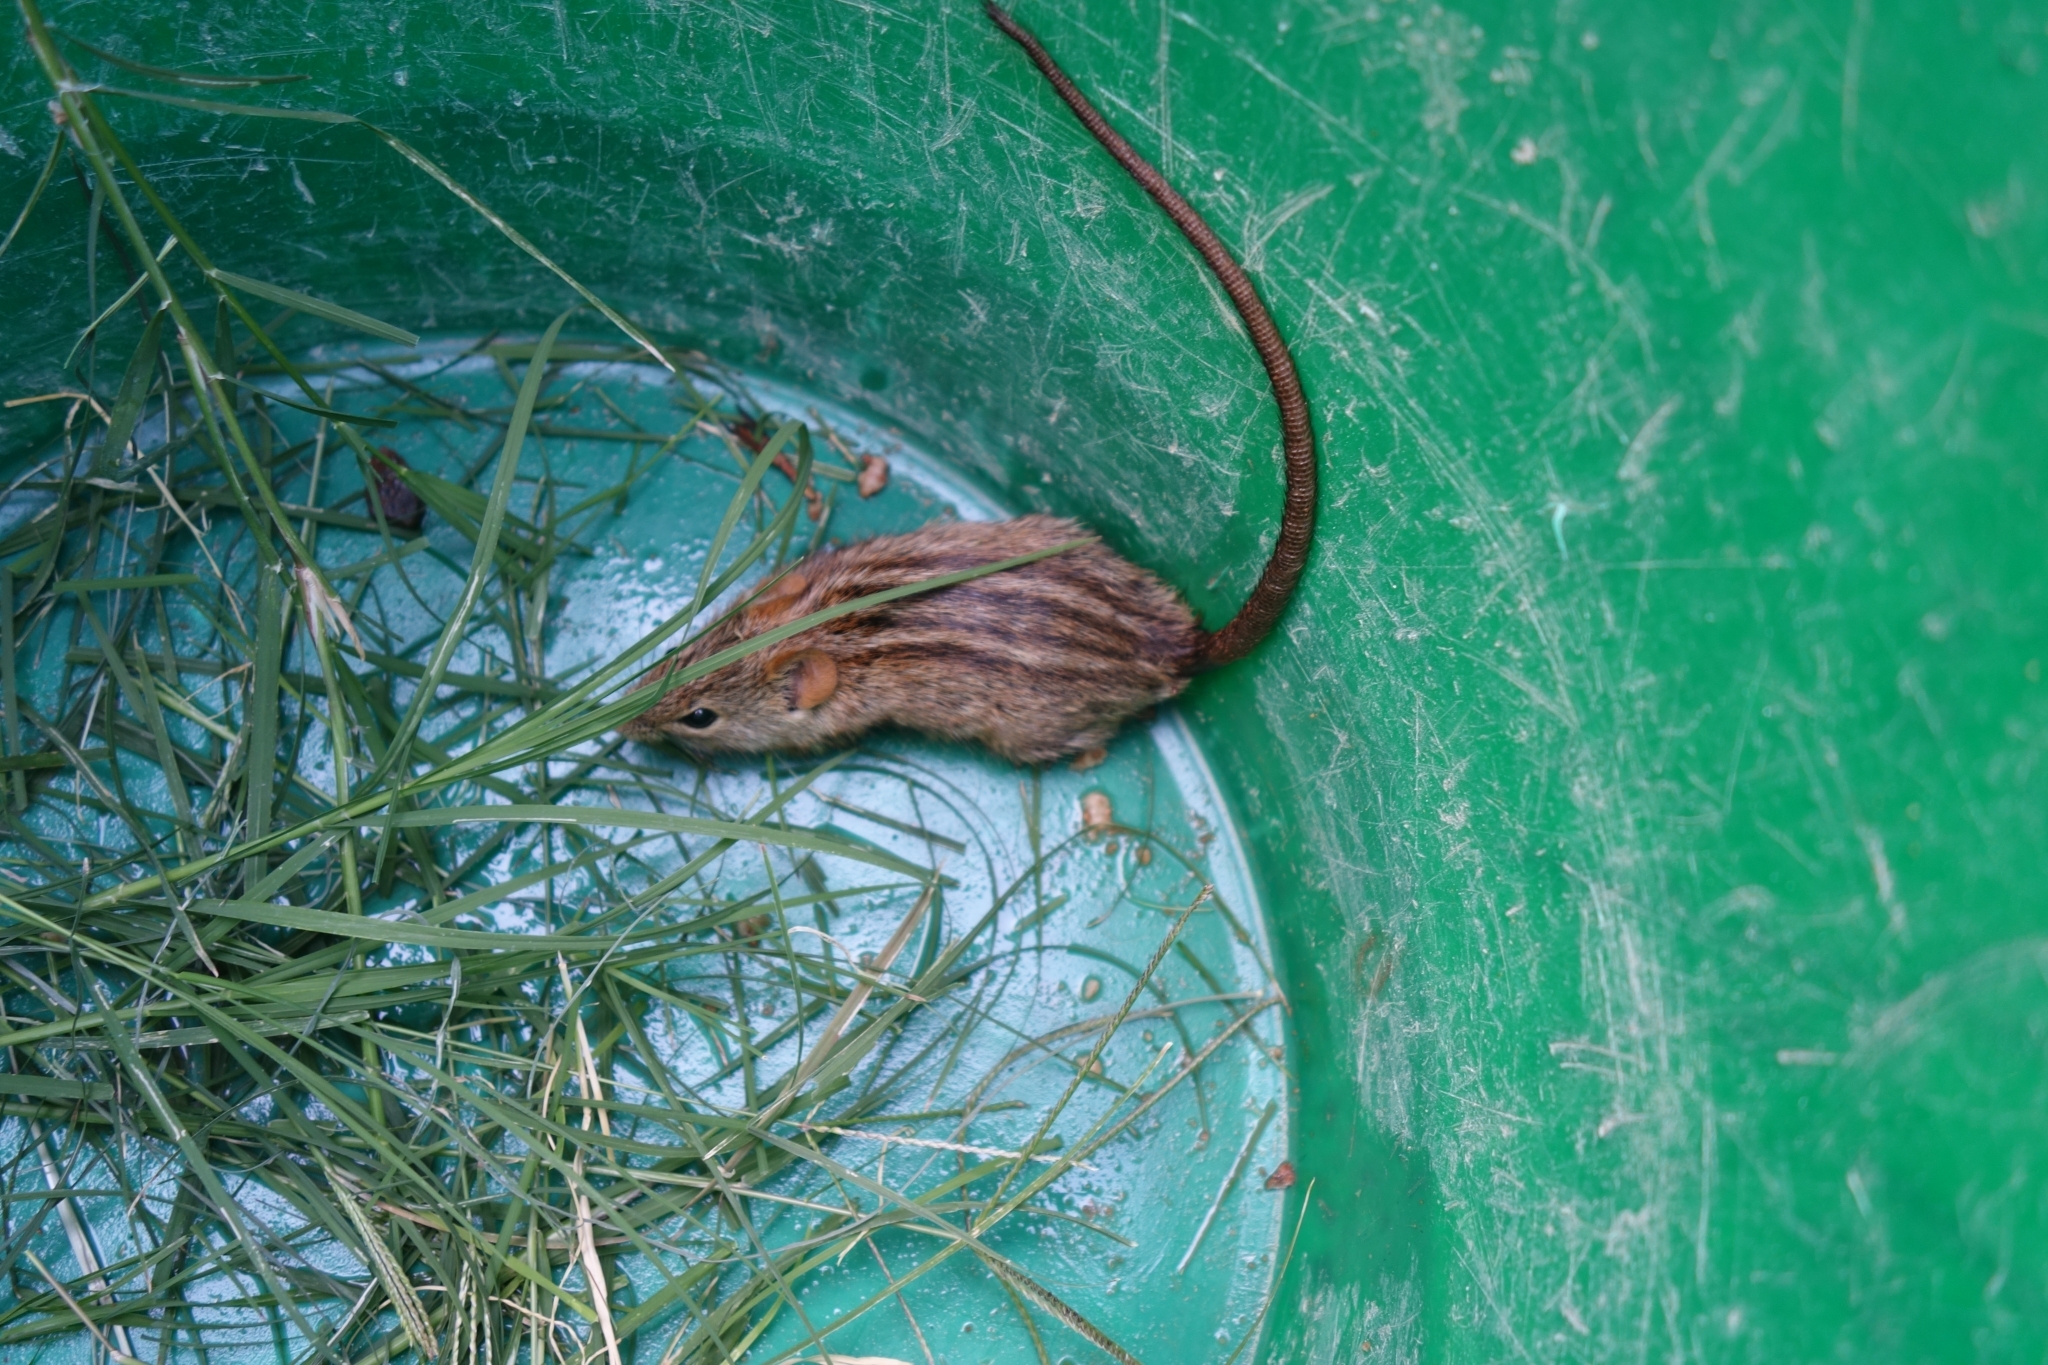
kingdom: Animalia
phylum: Chordata
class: Mammalia
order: Rodentia
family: Muridae
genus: Rhabdomys
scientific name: Rhabdomys pumilio
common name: Xeric four-striped grass rat
